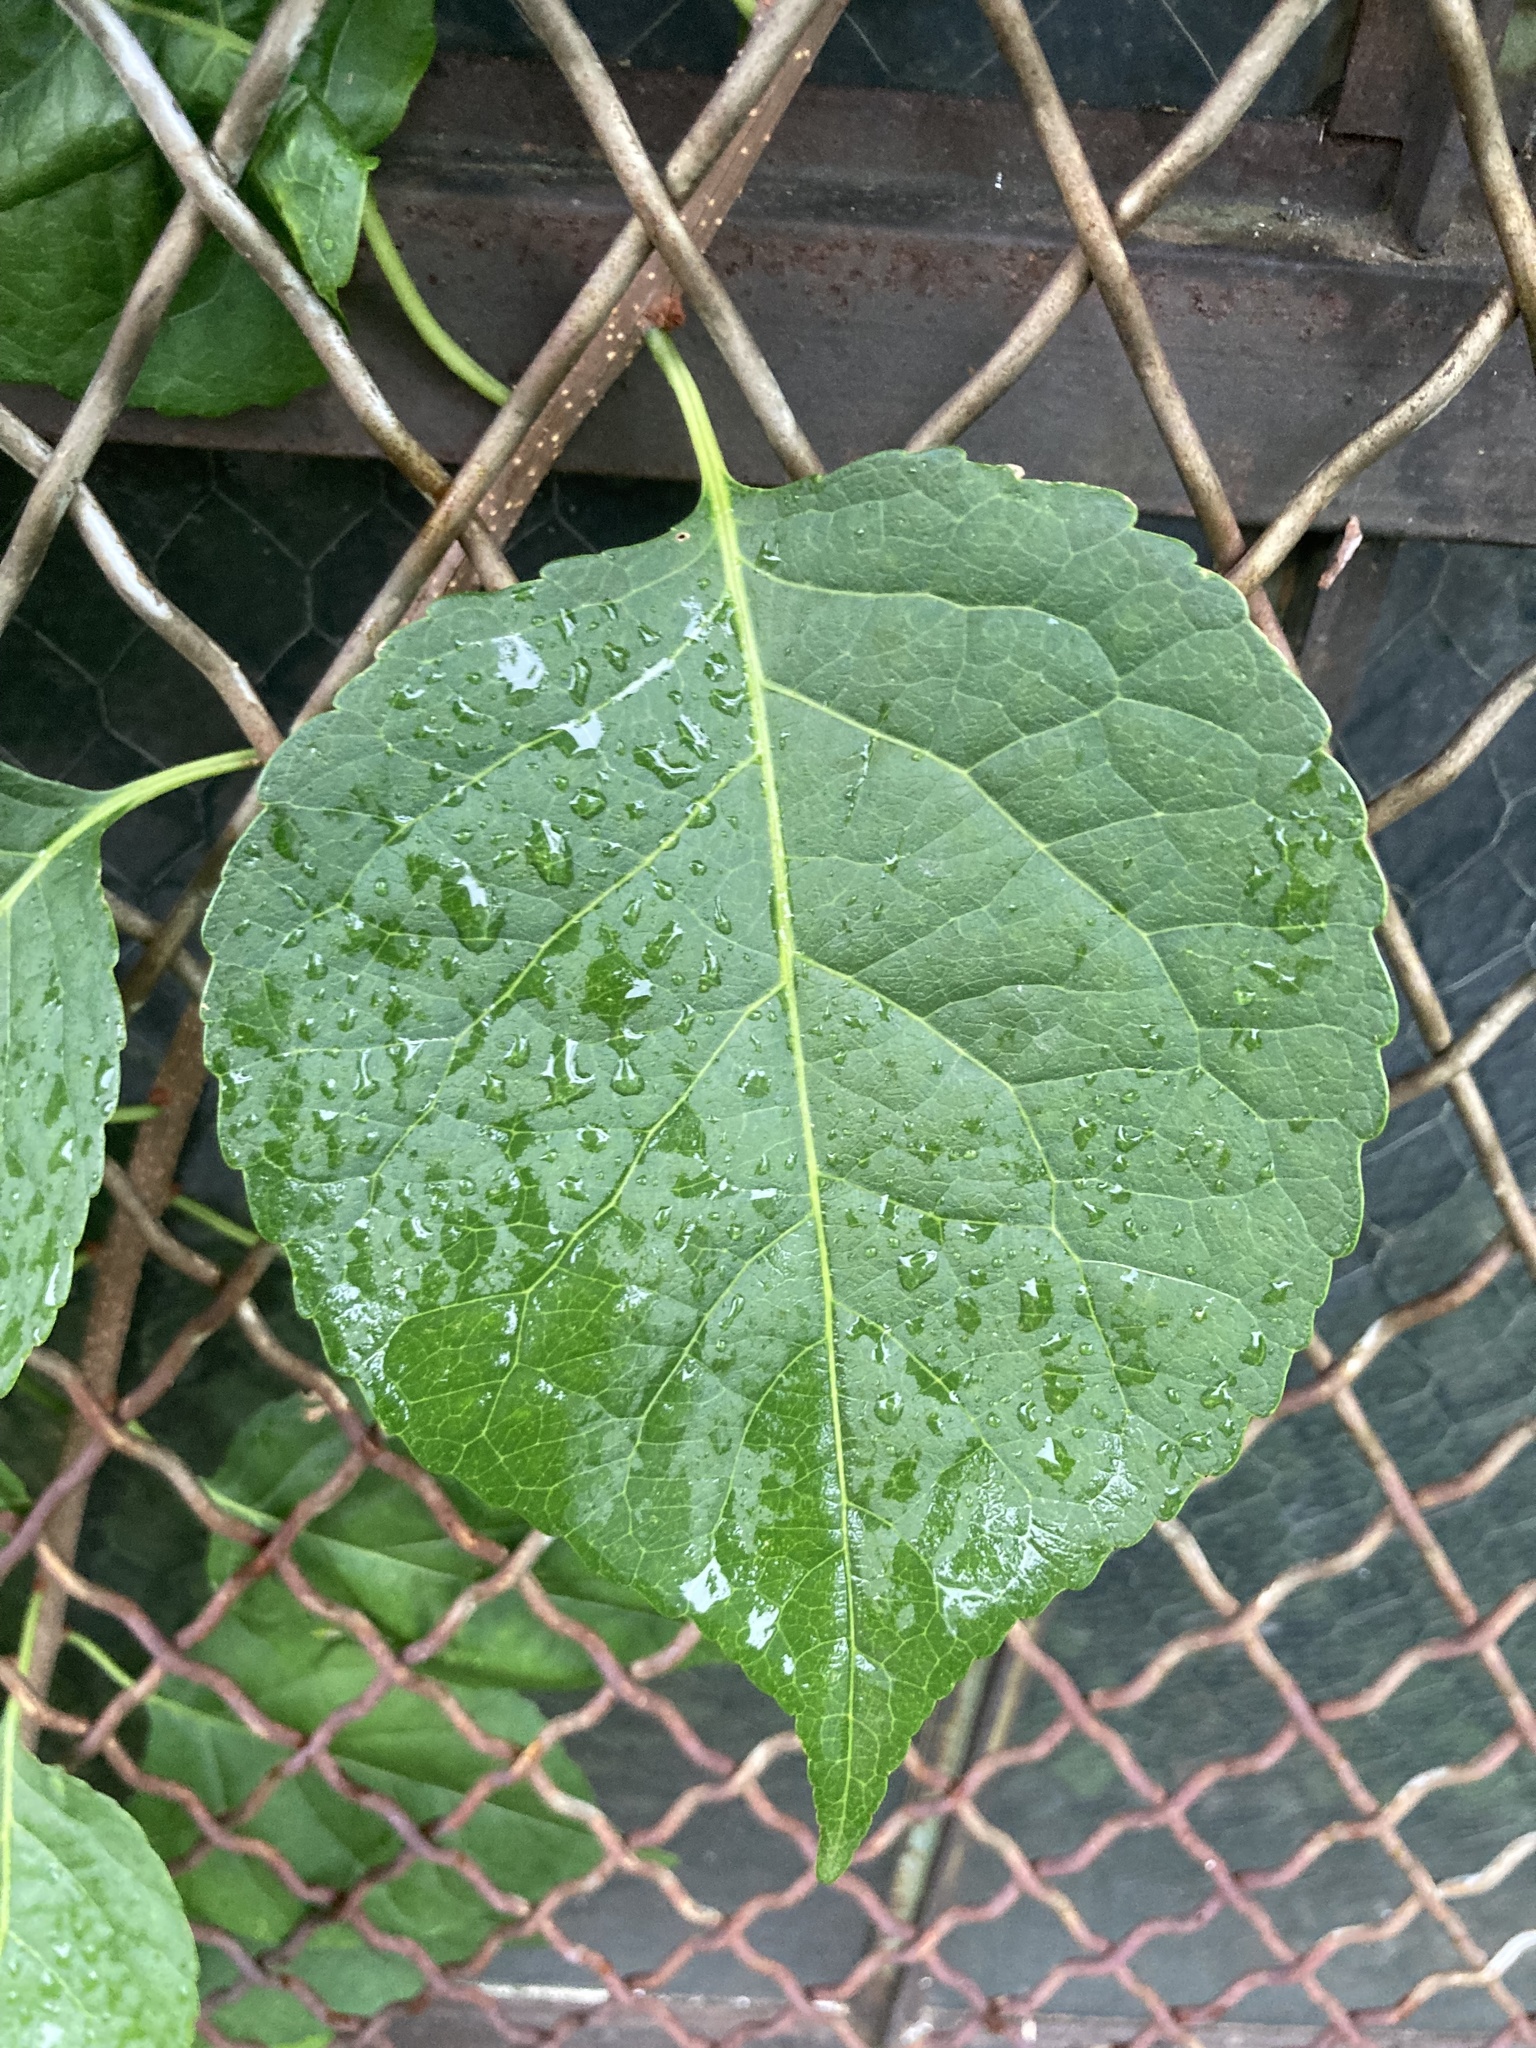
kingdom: Plantae
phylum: Tracheophyta
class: Magnoliopsida
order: Celastrales
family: Celastraceae
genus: Celastrus
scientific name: Celastrus orbiculatus
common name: Oriental bittersweet
